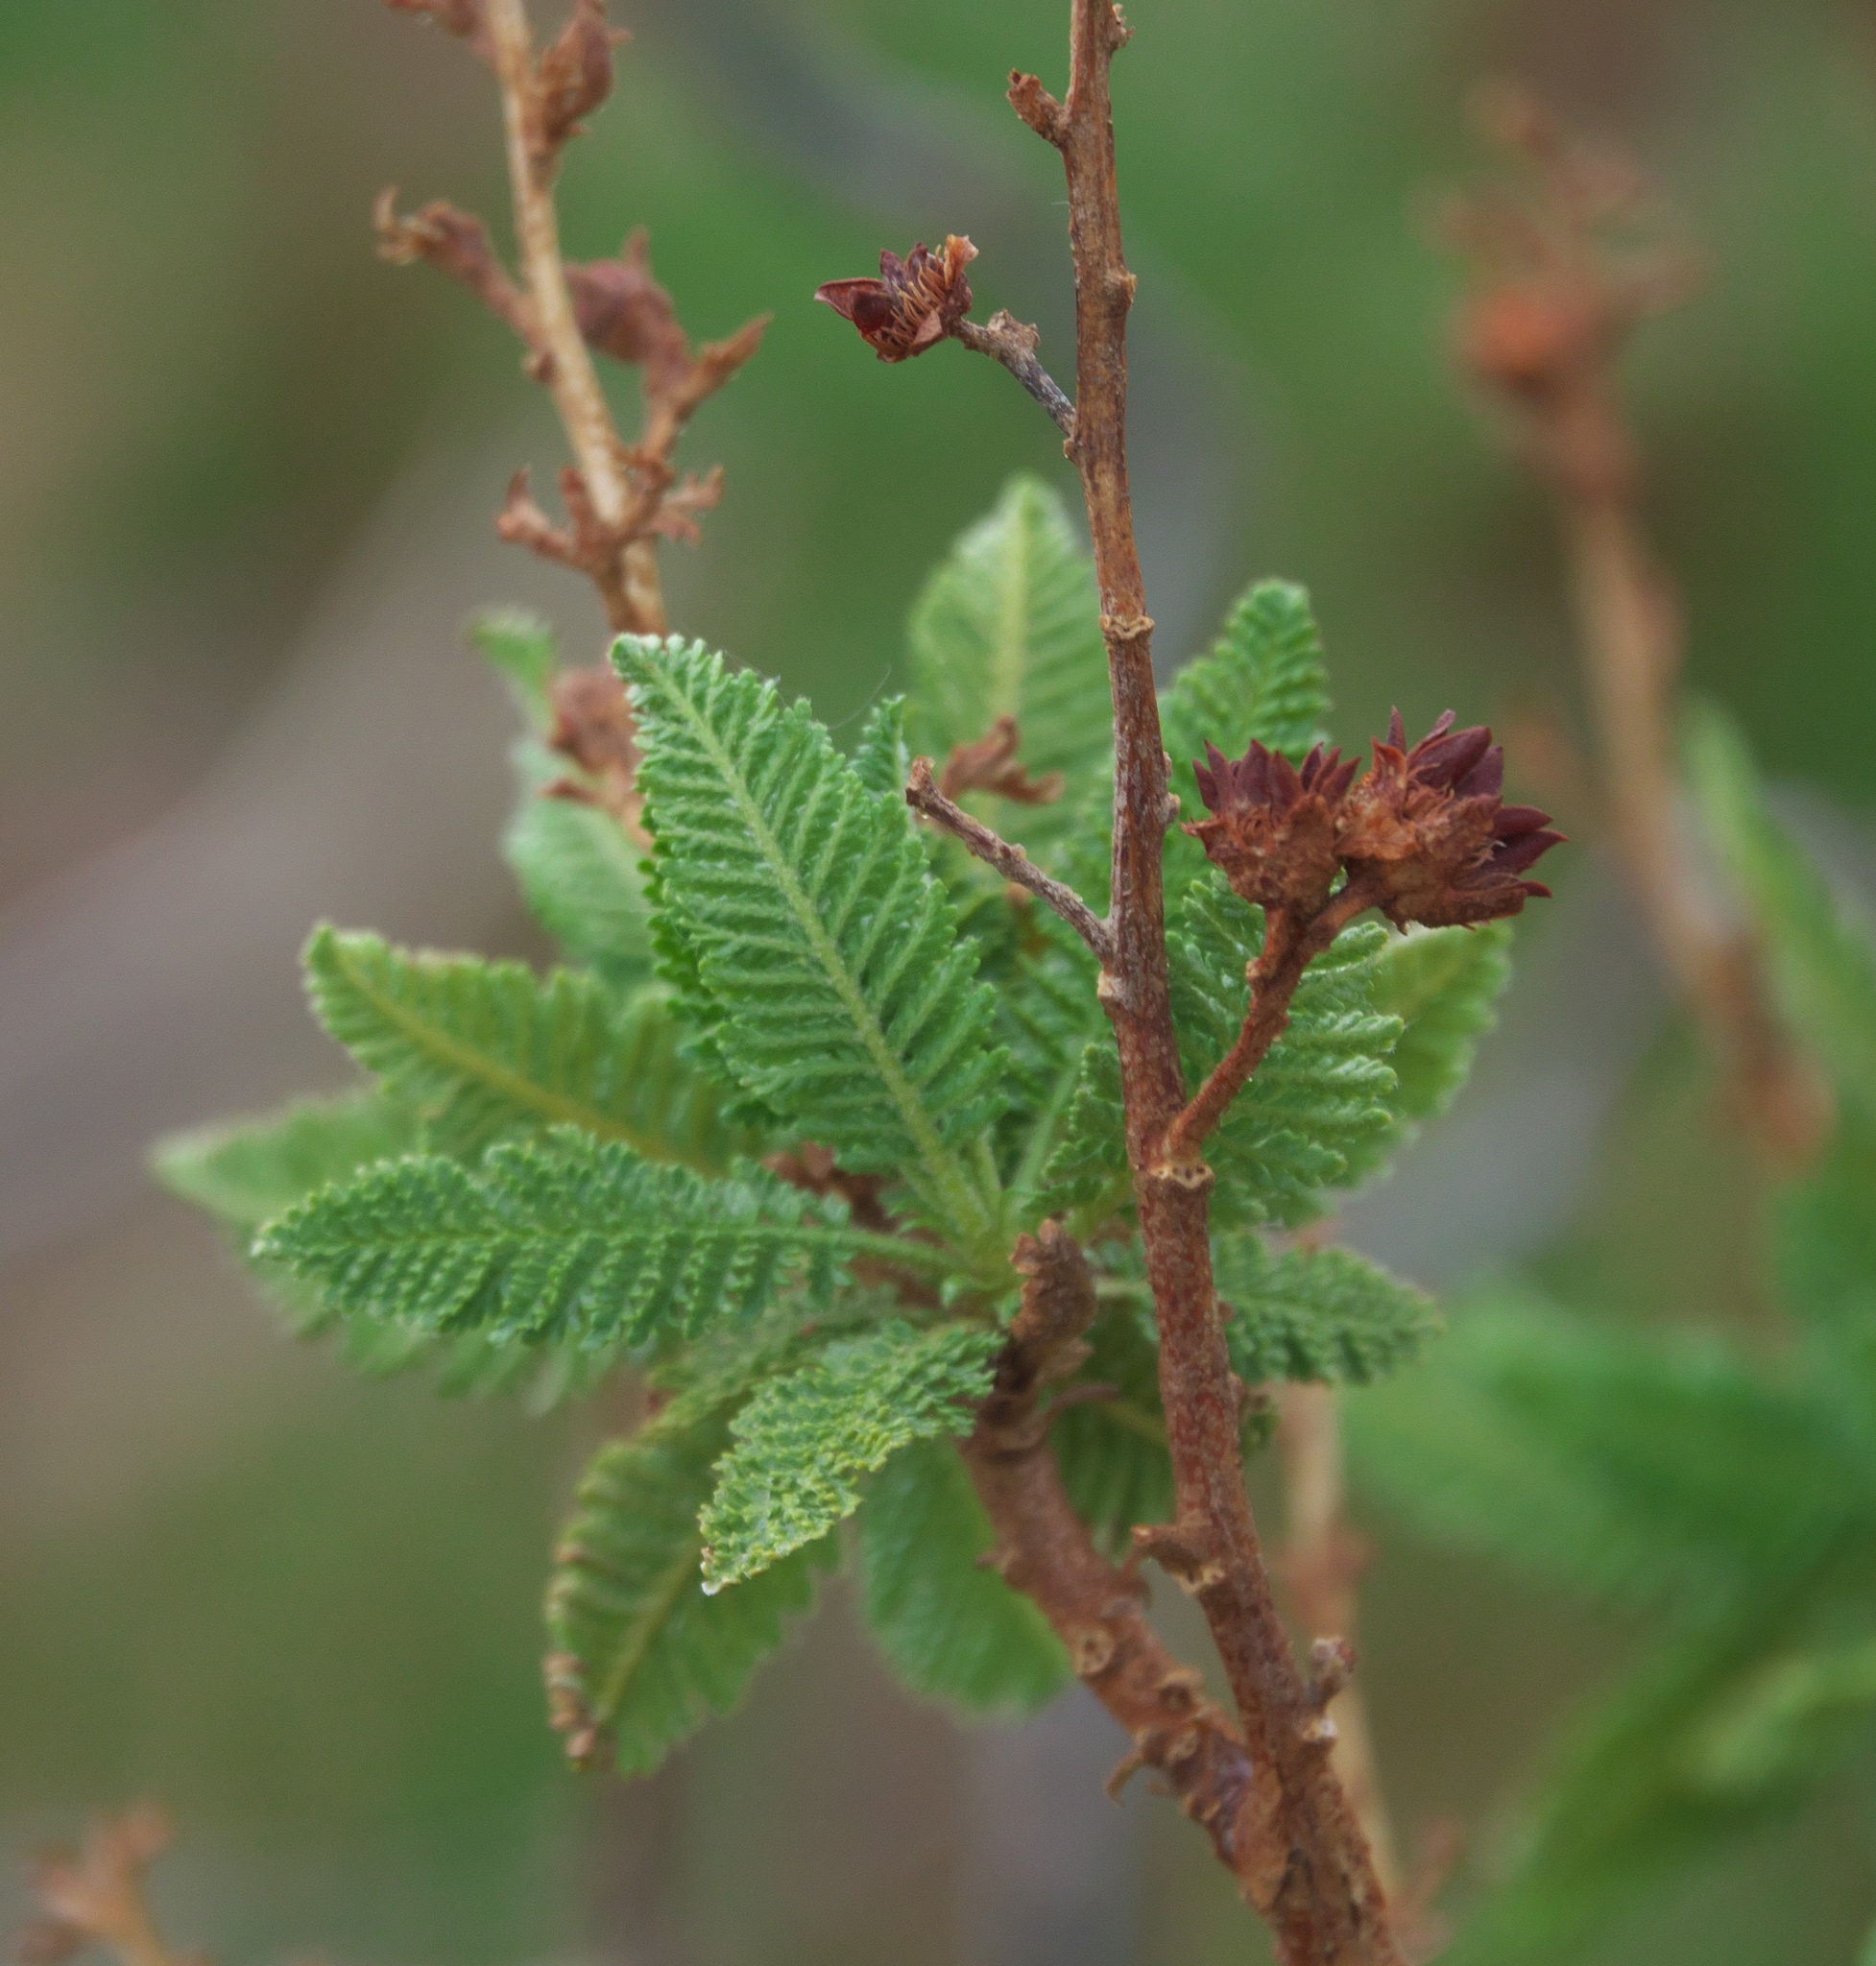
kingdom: Plantae
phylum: Tracheophyta
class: Magnoliopsida
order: Rosales
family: Rosaceae
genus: Chamaebatiaria
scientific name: Chamaebatiaria millefolium
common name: Fernbush
